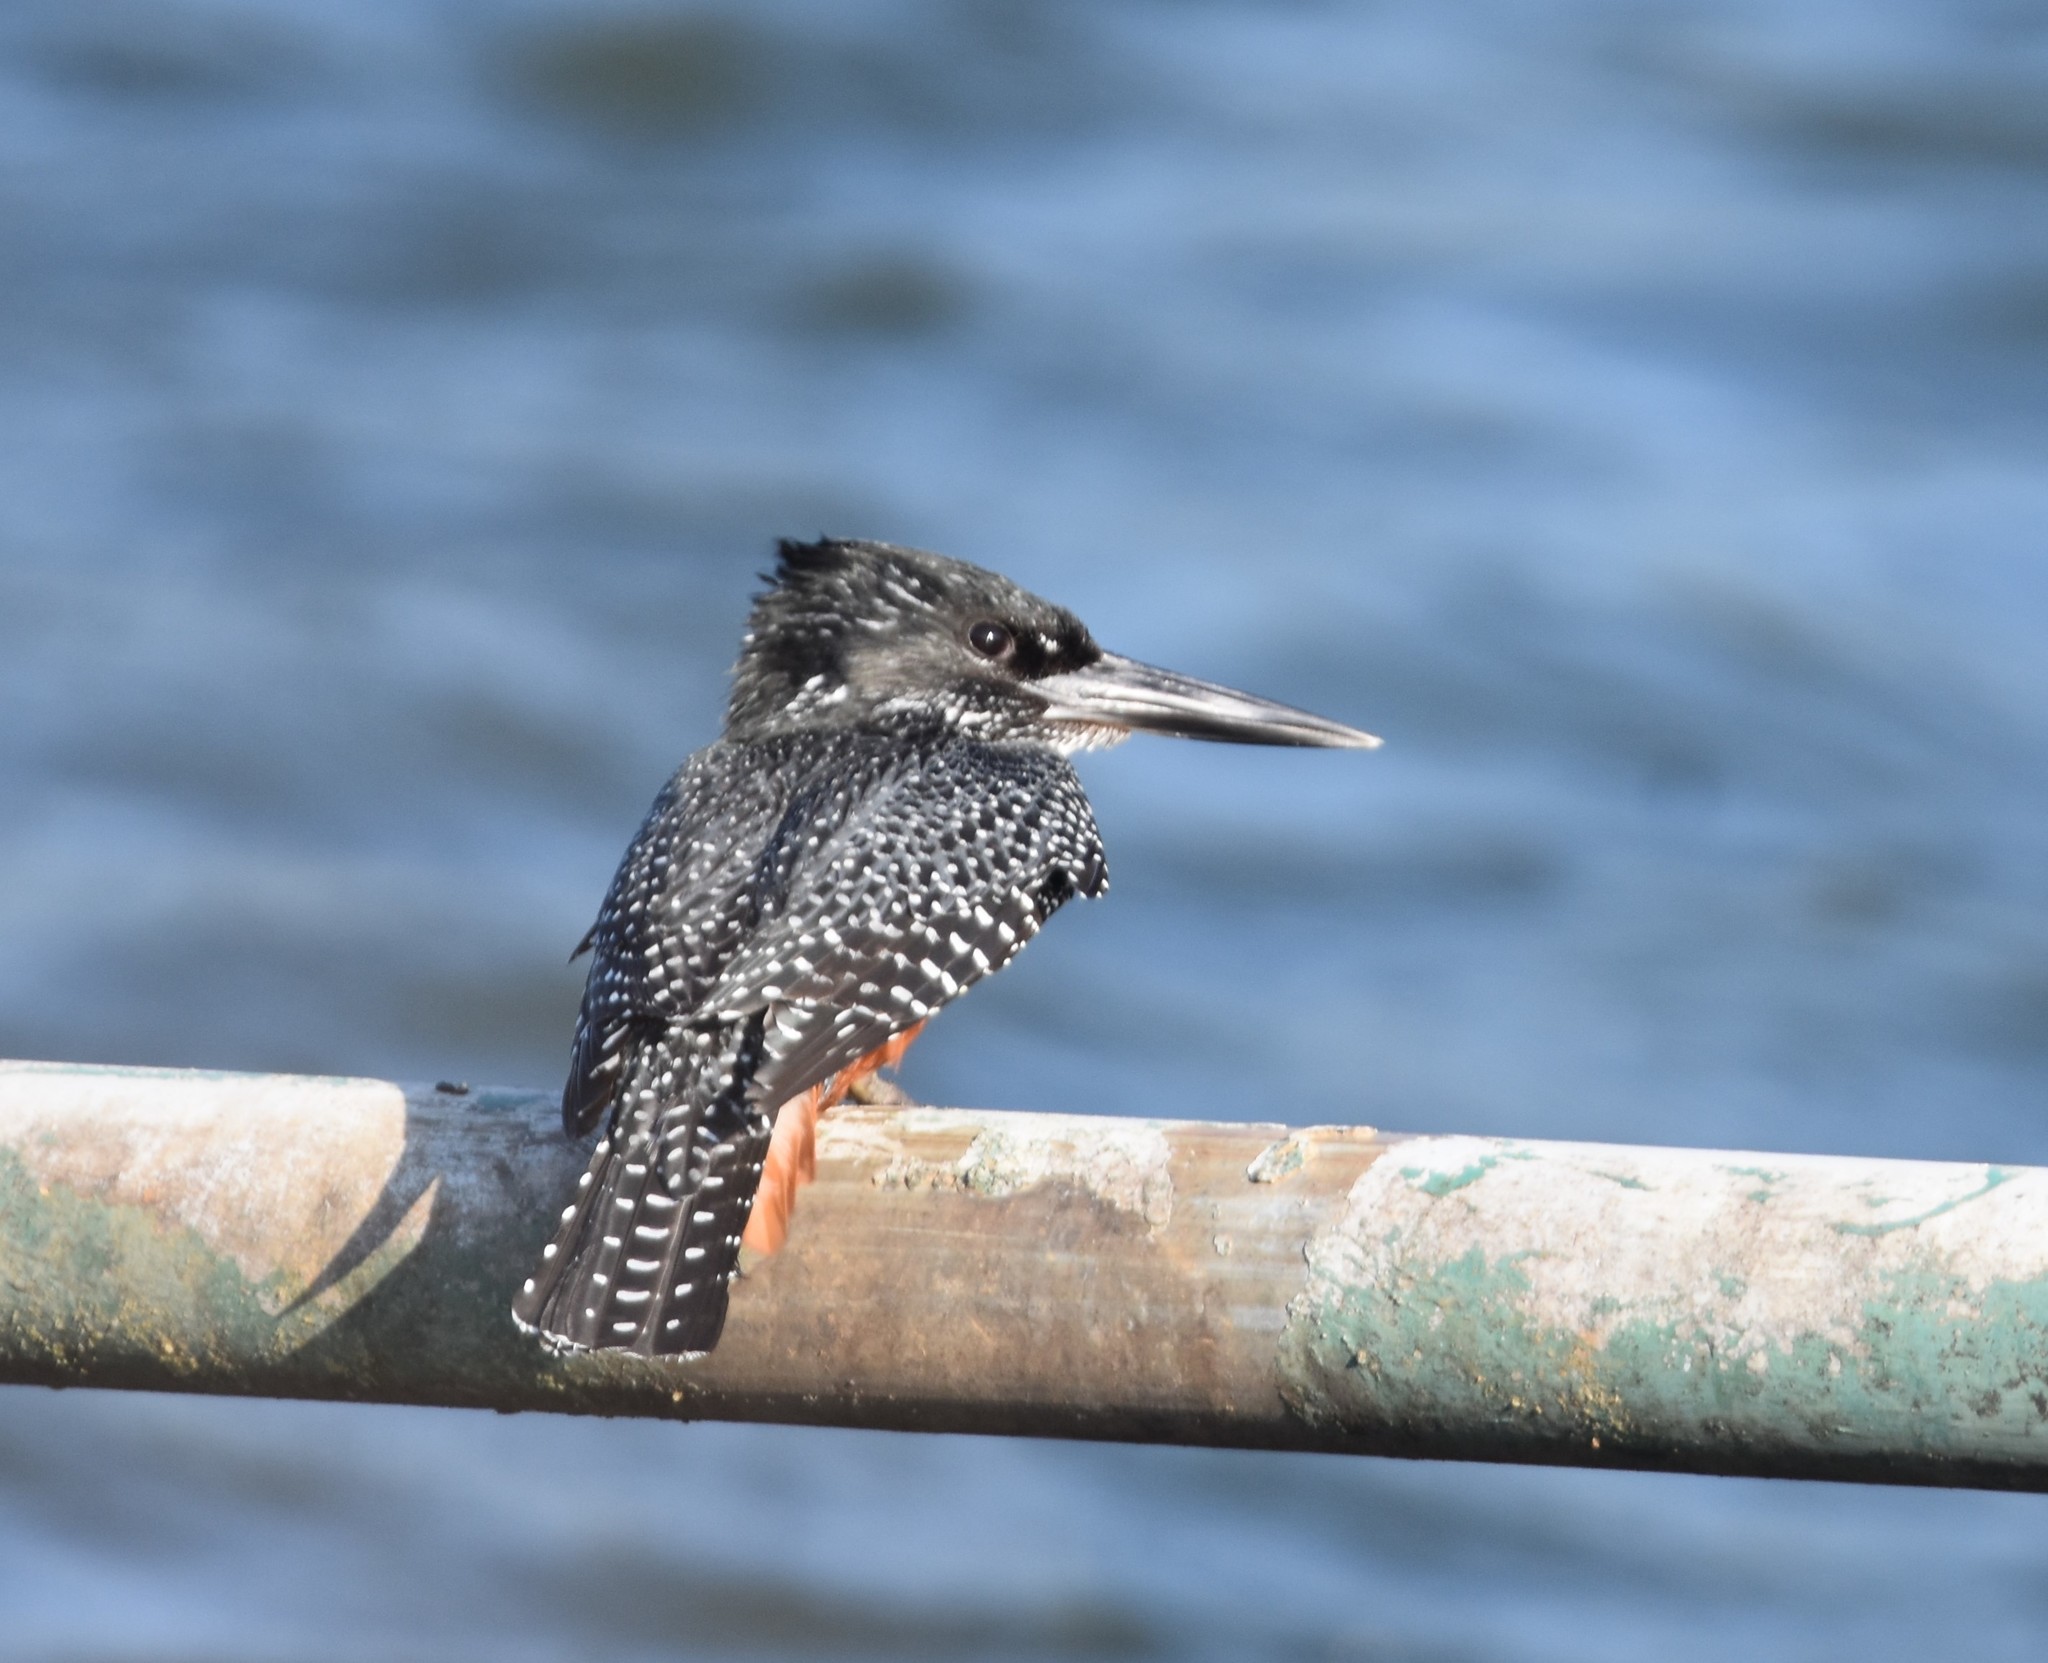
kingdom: Animalia
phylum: Chordata
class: Aves
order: Coraciiformes
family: Alcedinidae
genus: Megaceryle
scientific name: Megaceryle maxima
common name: Giant kingfisher
